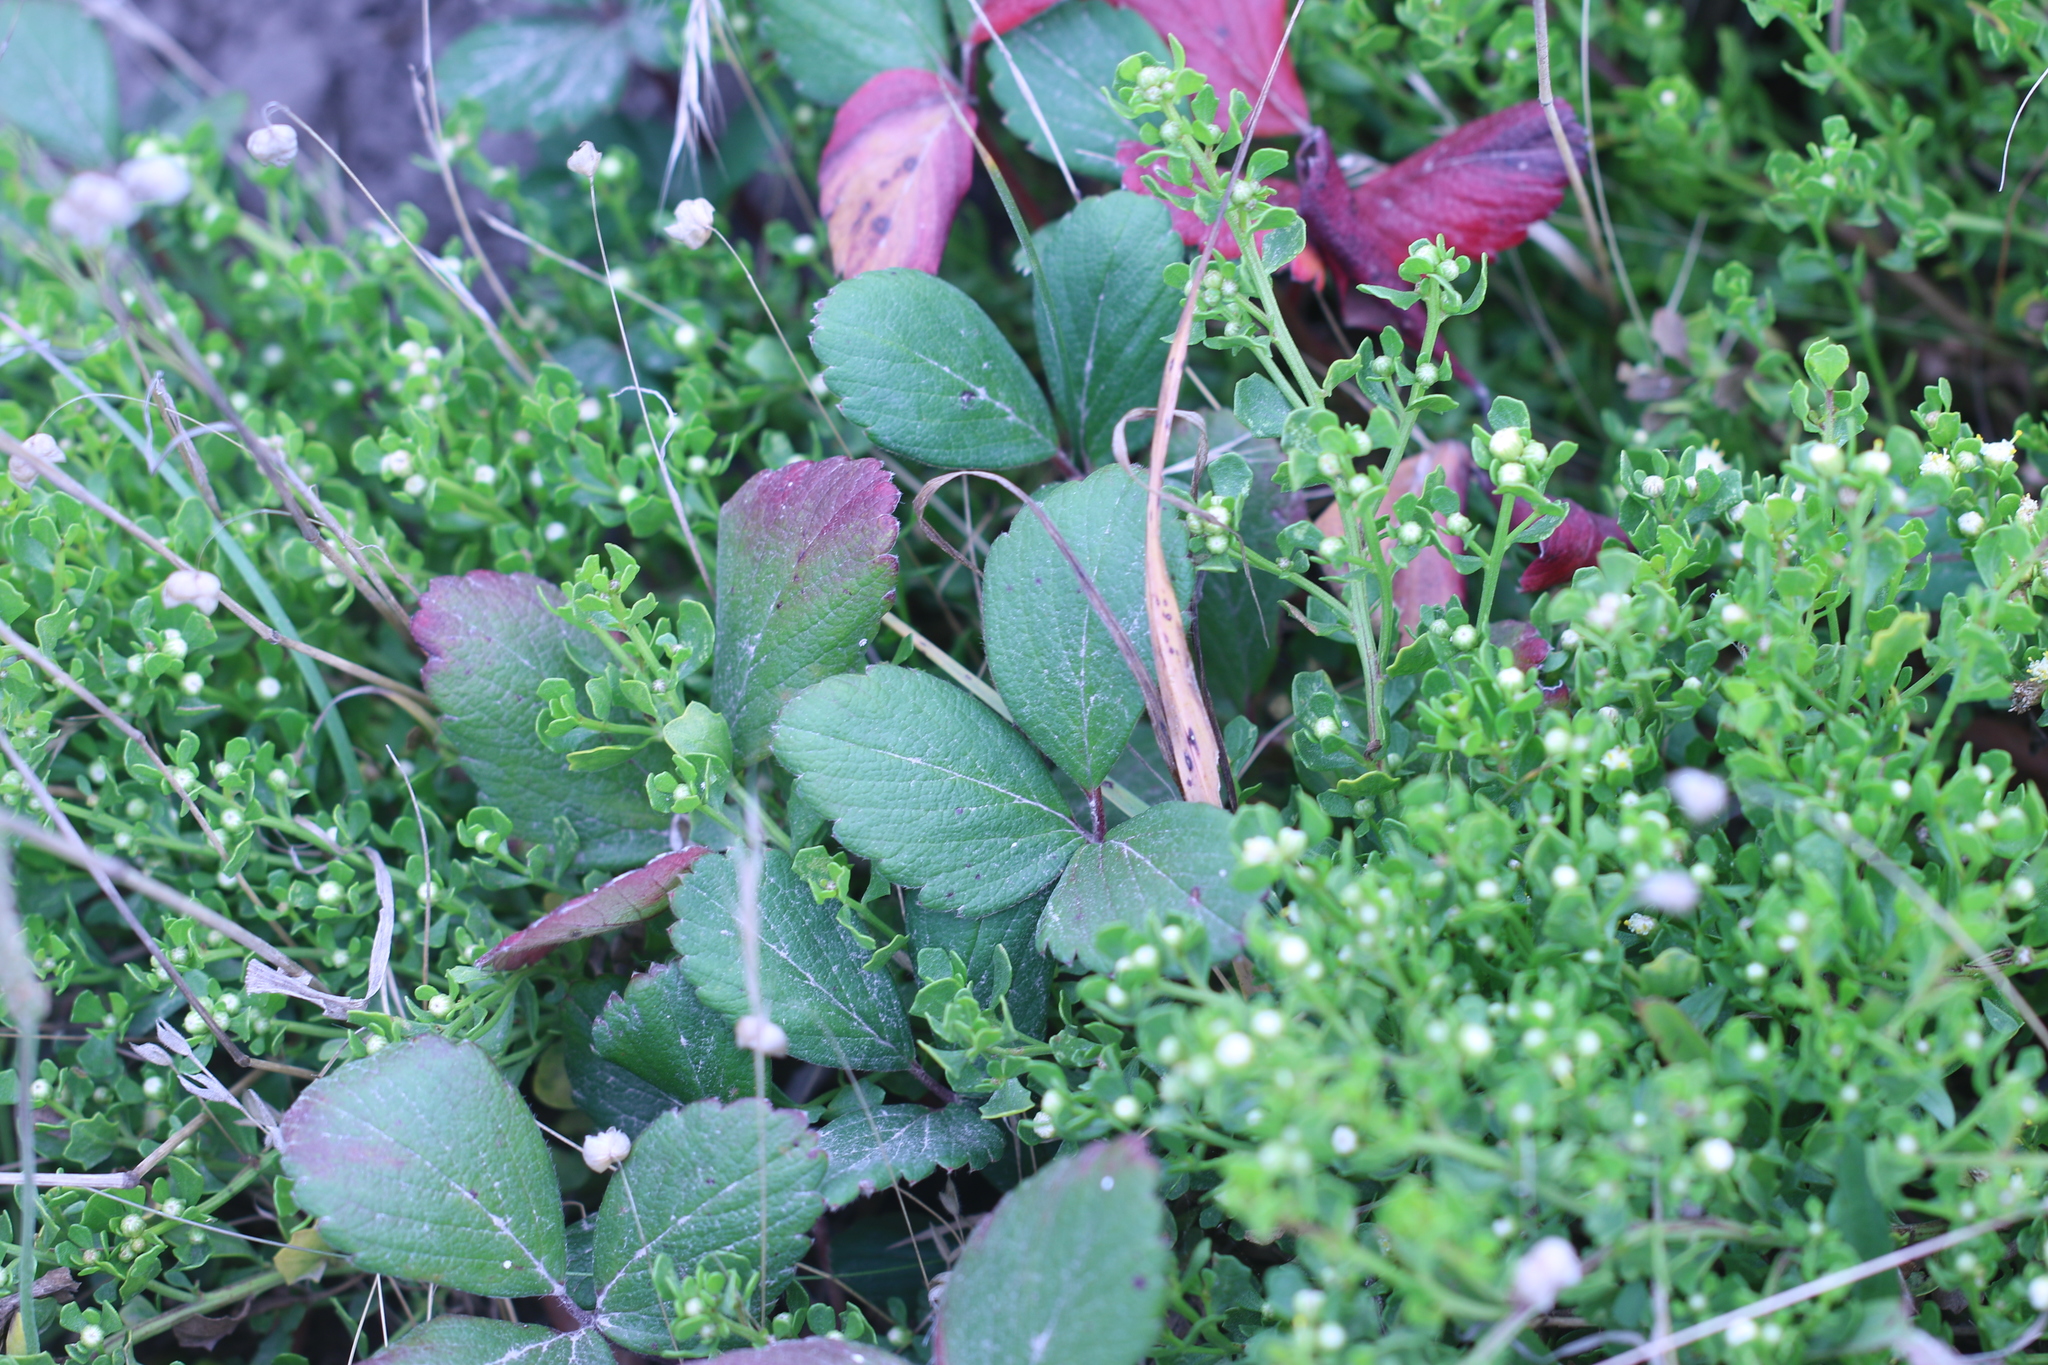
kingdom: Plantae
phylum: Tracheophyta
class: Magnoliopsida
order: Rosales
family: Rosaceae
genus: Fragaria
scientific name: Fragaria chiloensis
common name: Beach strawberry
